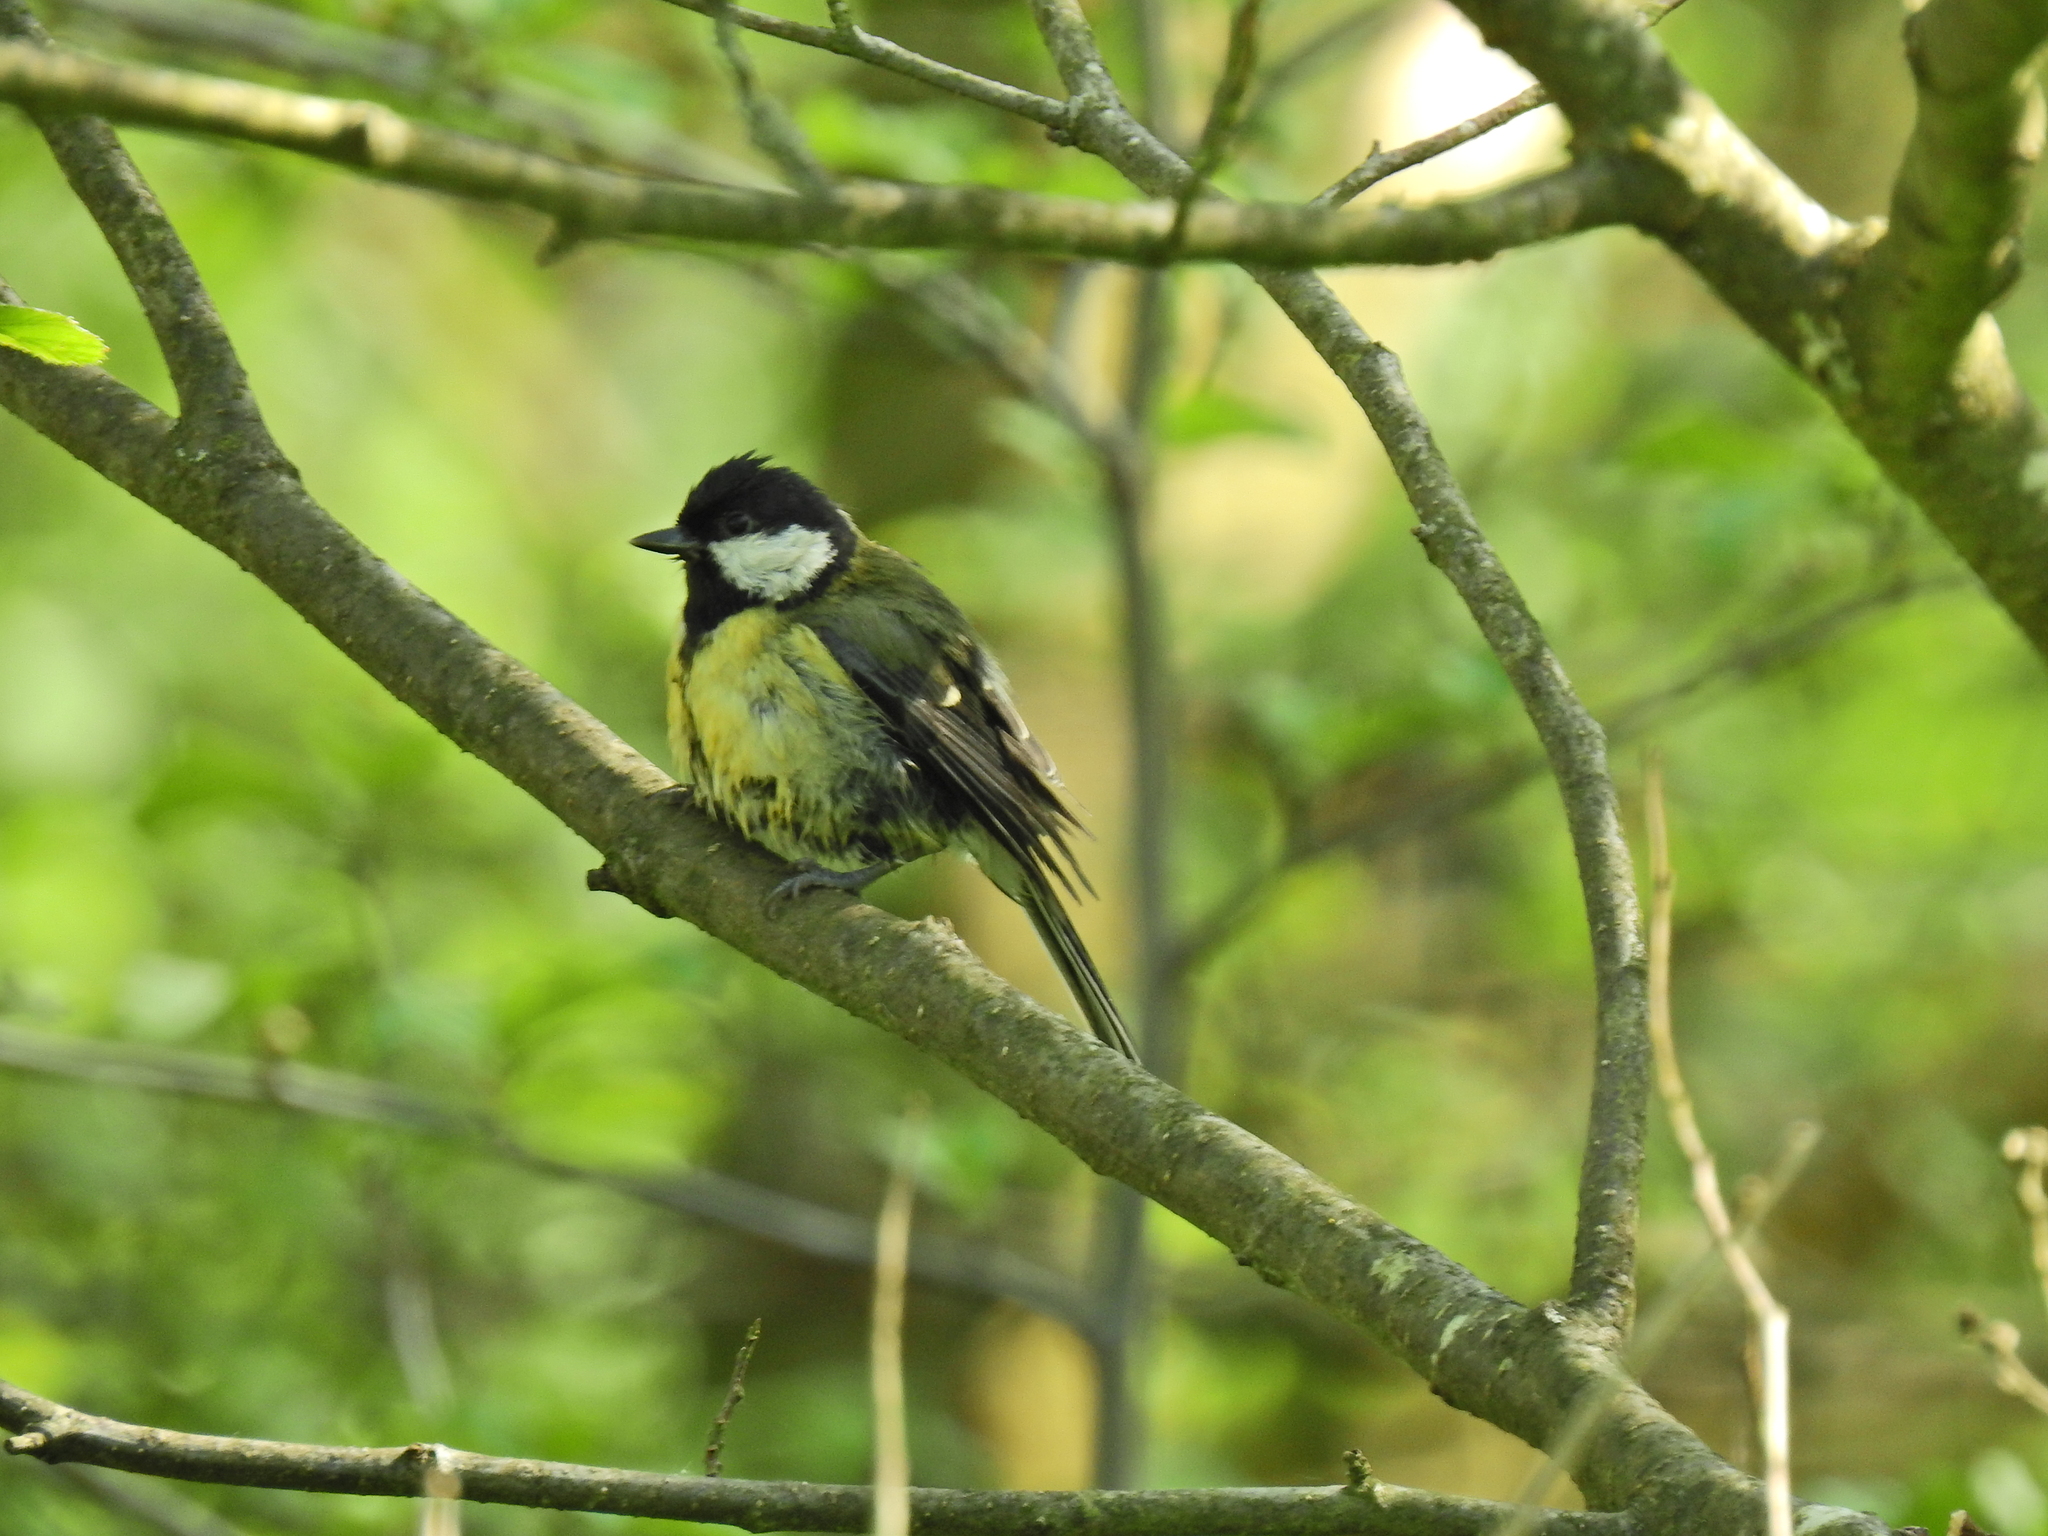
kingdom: Animalia
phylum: Chordata
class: Aves
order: Passeriformes
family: Paridae
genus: Parus
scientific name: Parus major
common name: Great tit
